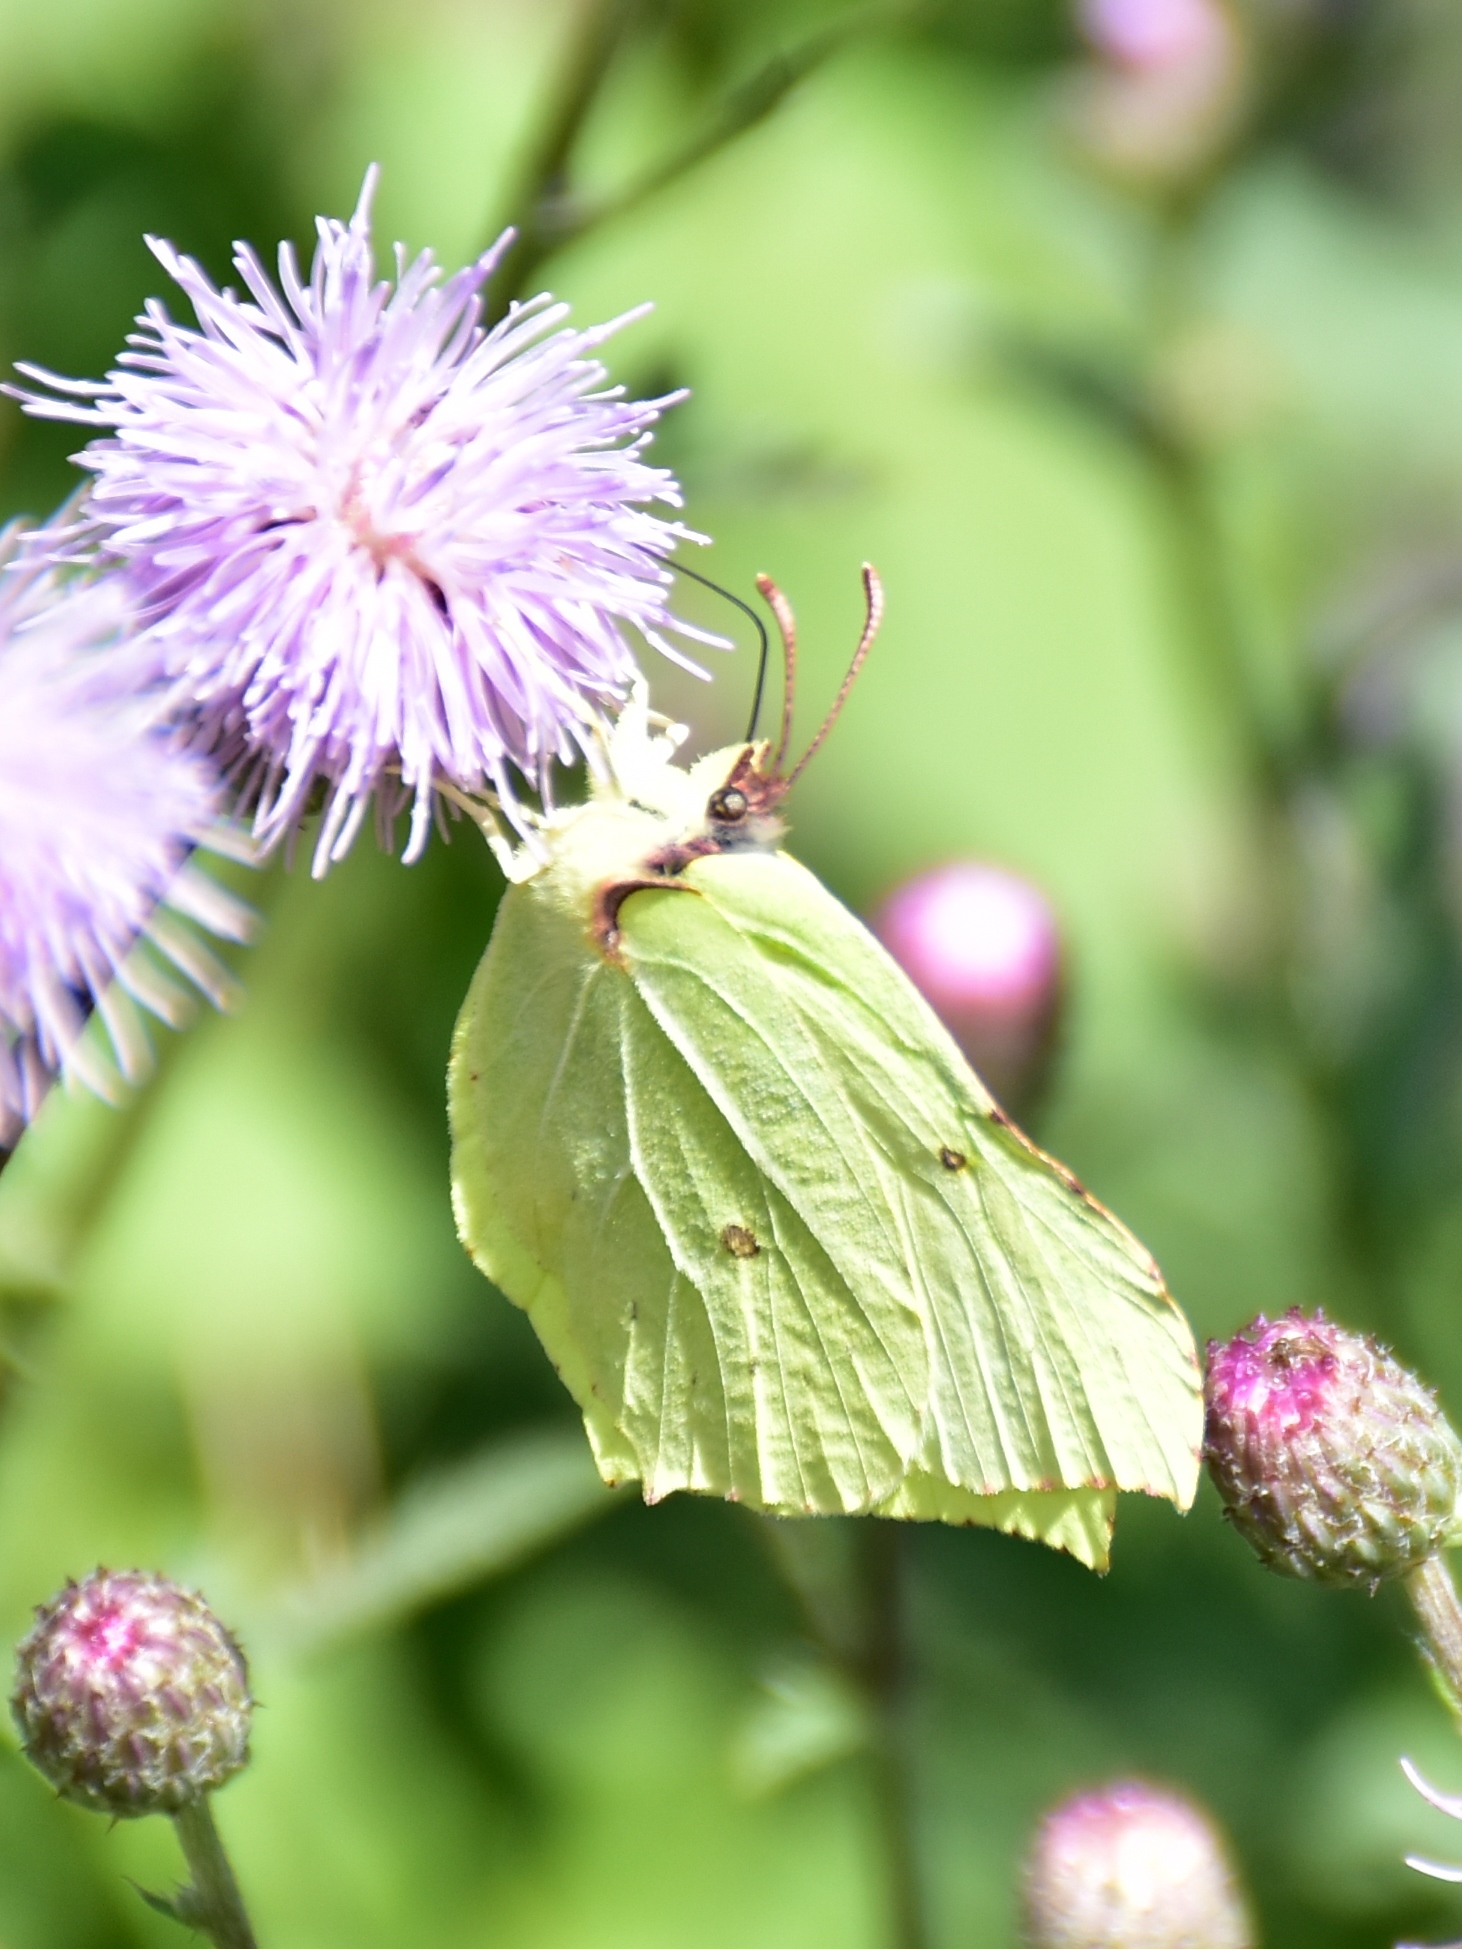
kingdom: Animalia
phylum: Arthropoda
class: Insecta
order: Lepidoptera
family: Pieridae
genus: Gonepteryx
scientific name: Gonepteryx rhamni
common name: Brimstone
